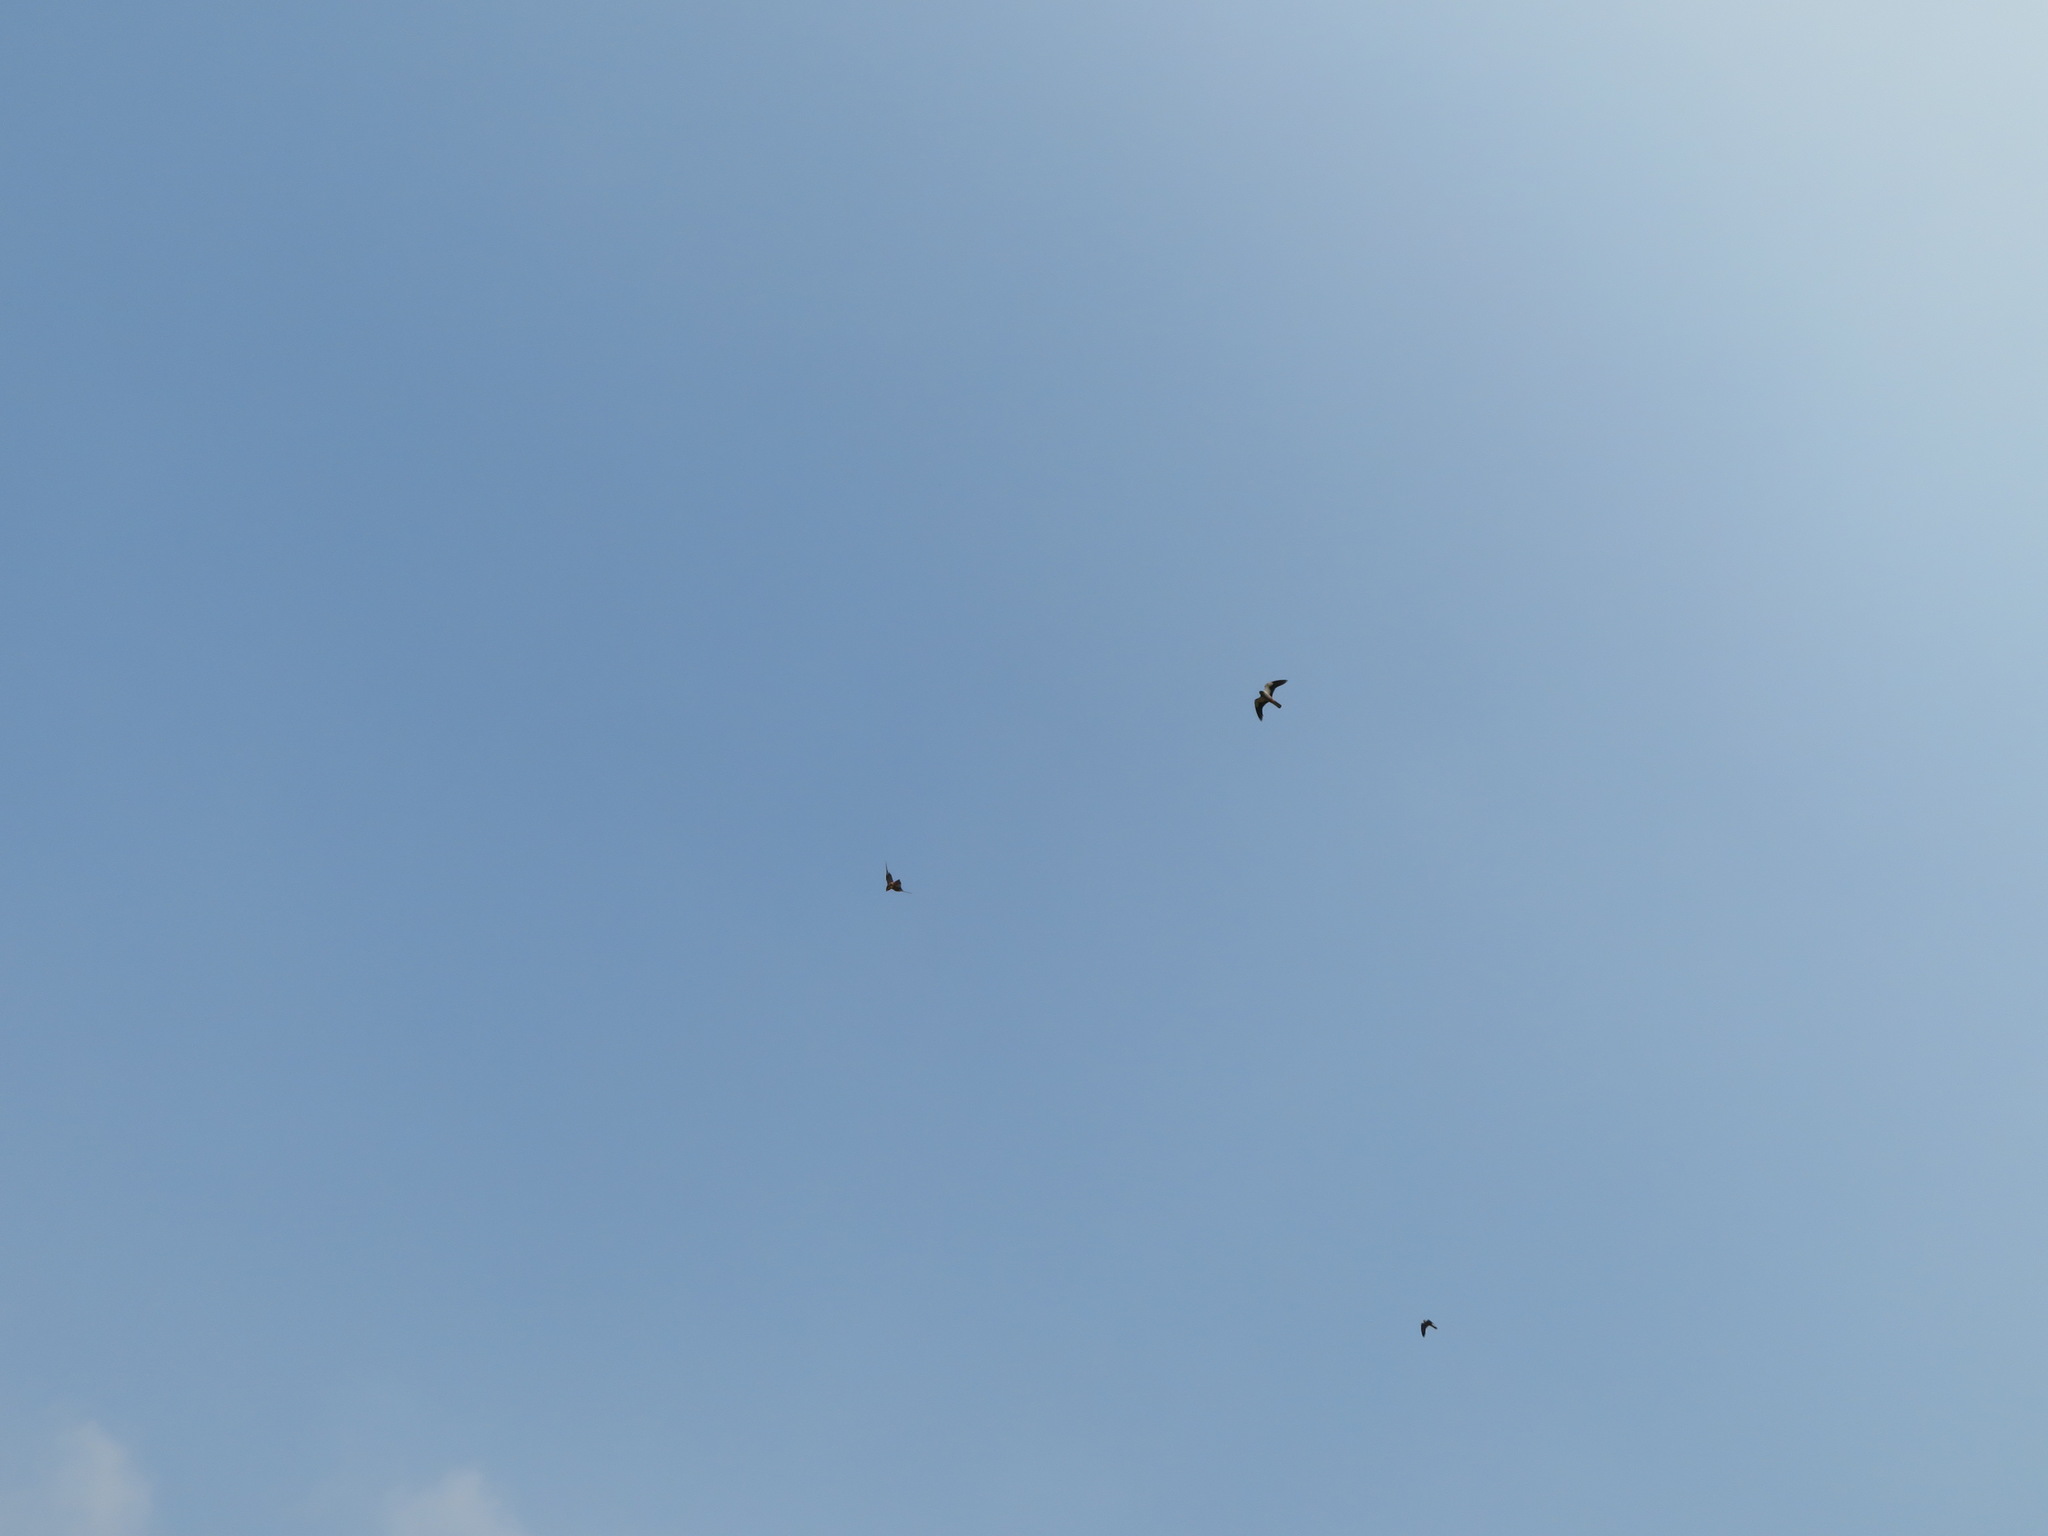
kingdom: Animalia
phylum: Chordata
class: Aves
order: Falconiformes
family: Falconidae
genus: Falco
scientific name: Falco amurensis
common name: Amur falcon
